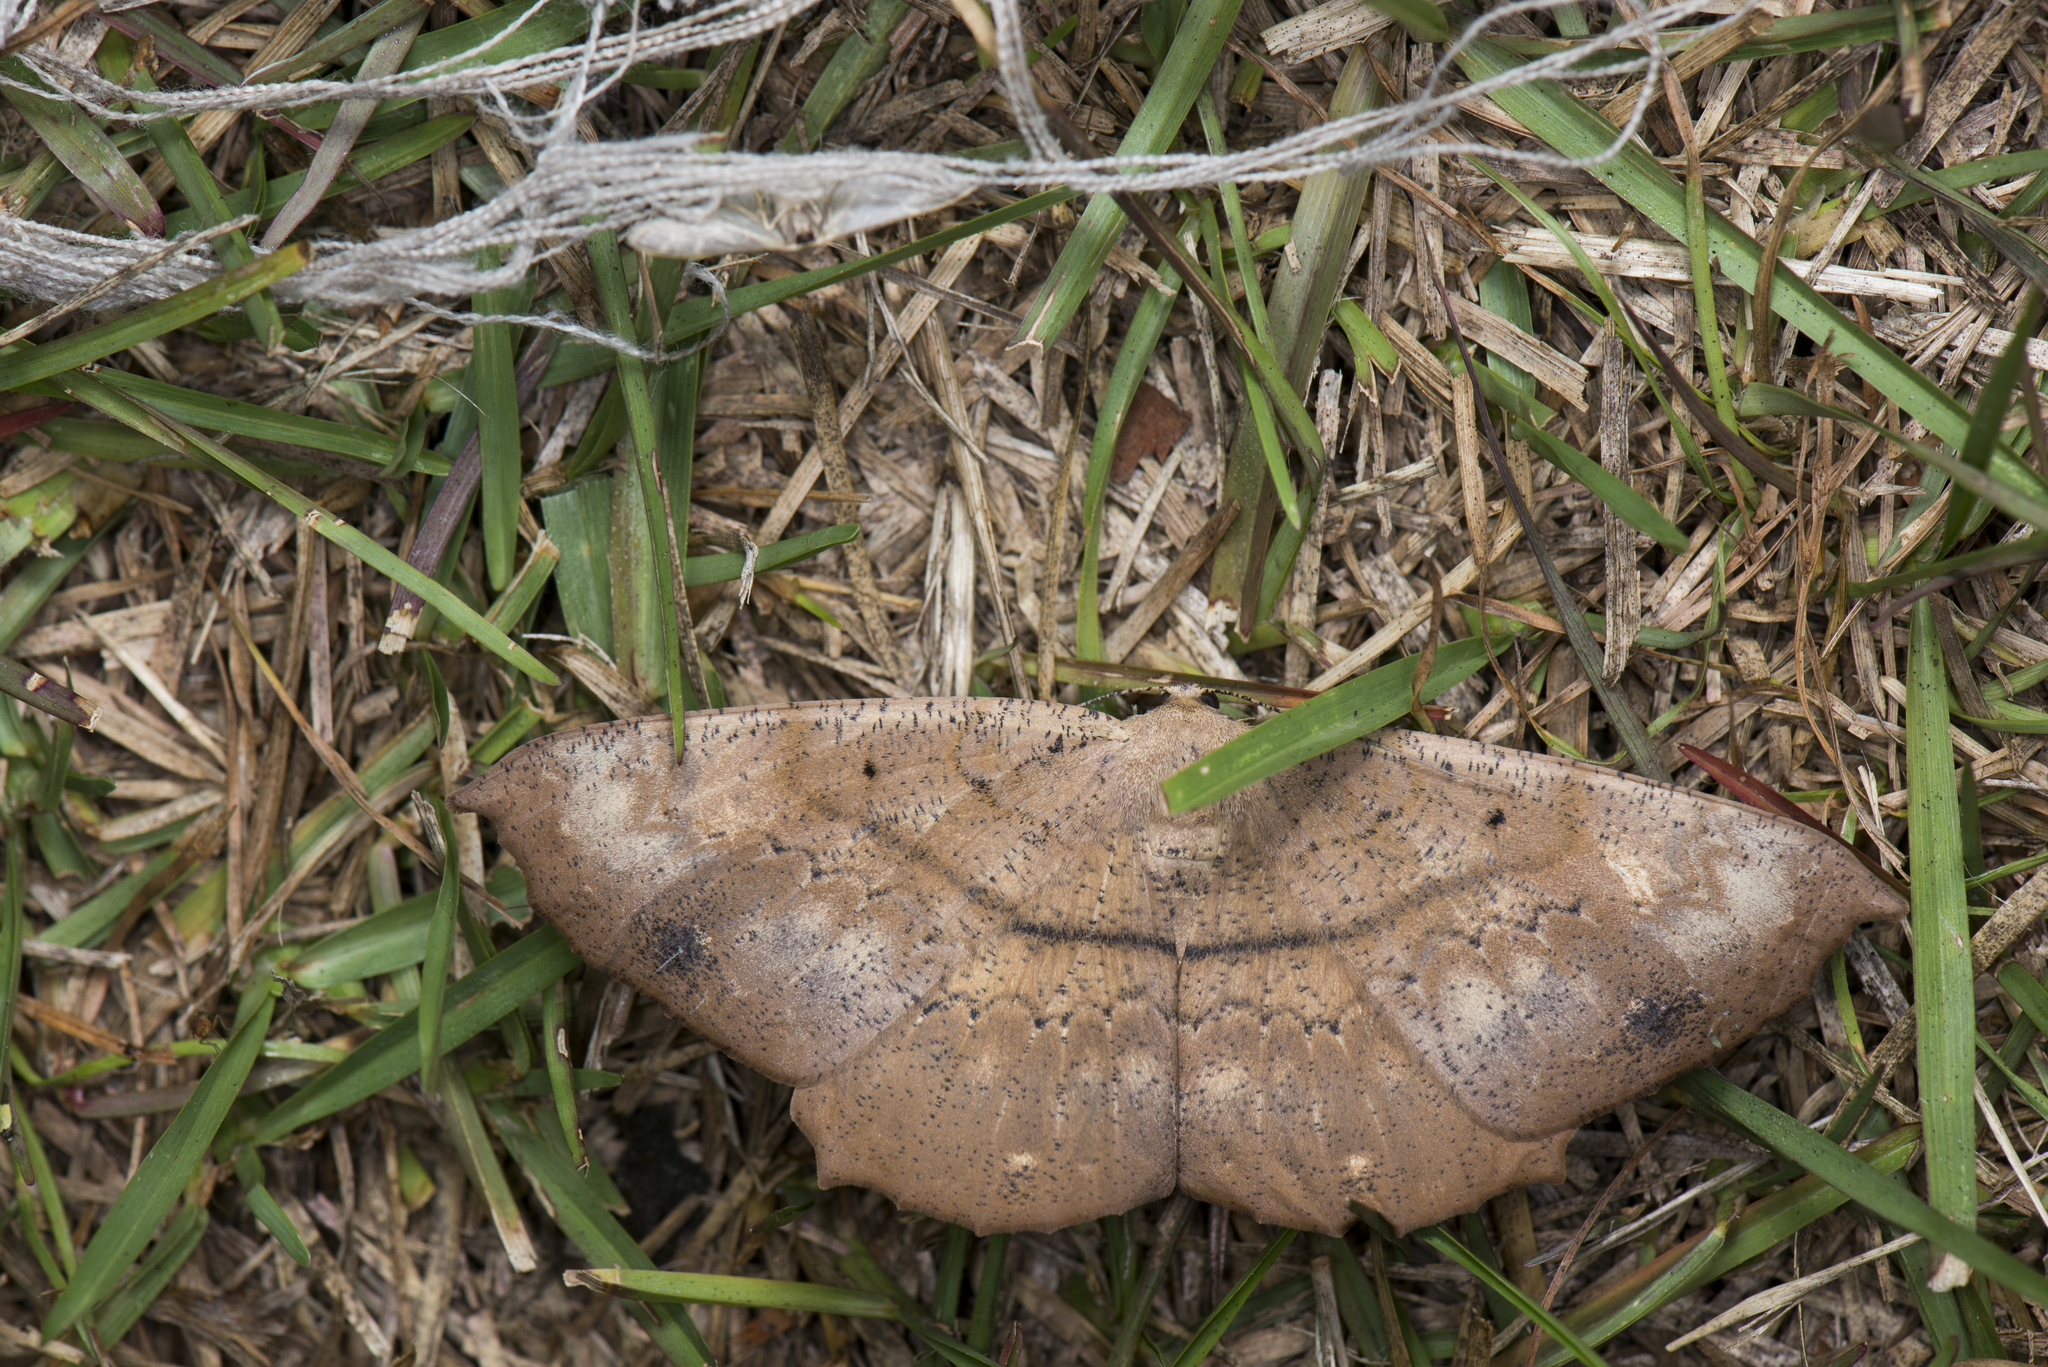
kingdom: Animalia
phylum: Arthropoda
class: Insecta
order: Lepidoptera
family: Geometridae
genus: Chorodna
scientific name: Chorodna ochreimacula
